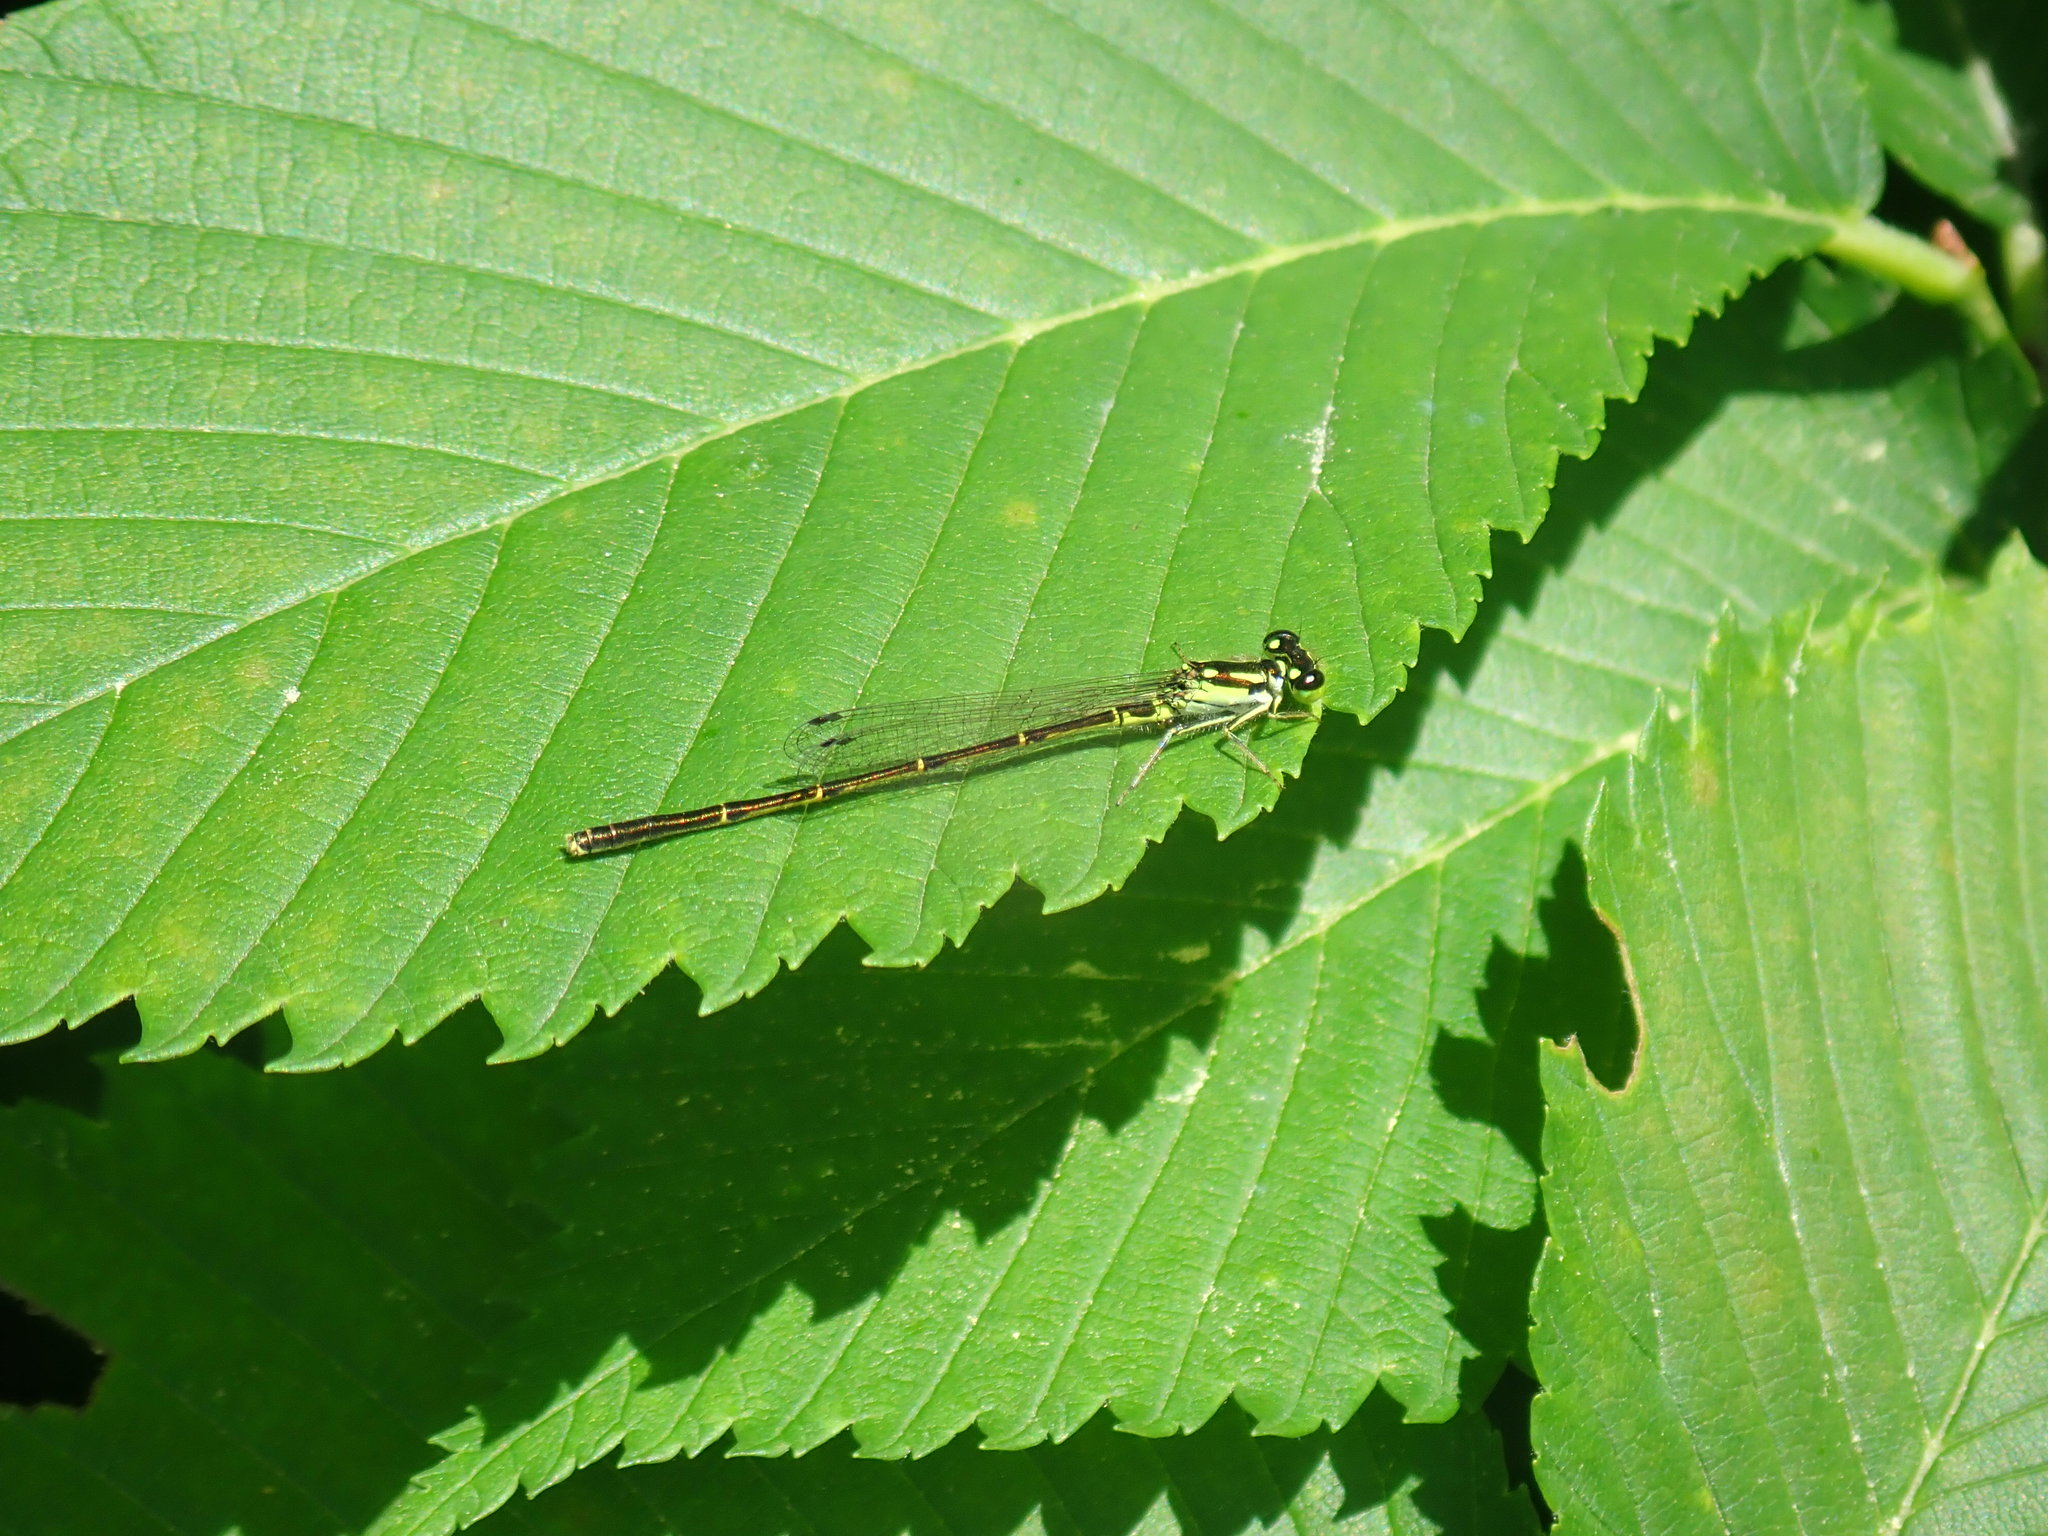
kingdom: Animalia
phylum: Arthropoda
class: Insecta
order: Odonata
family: Coenagrionidae
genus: Ischnura
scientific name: Ischnura posita
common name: Fragile forktail
